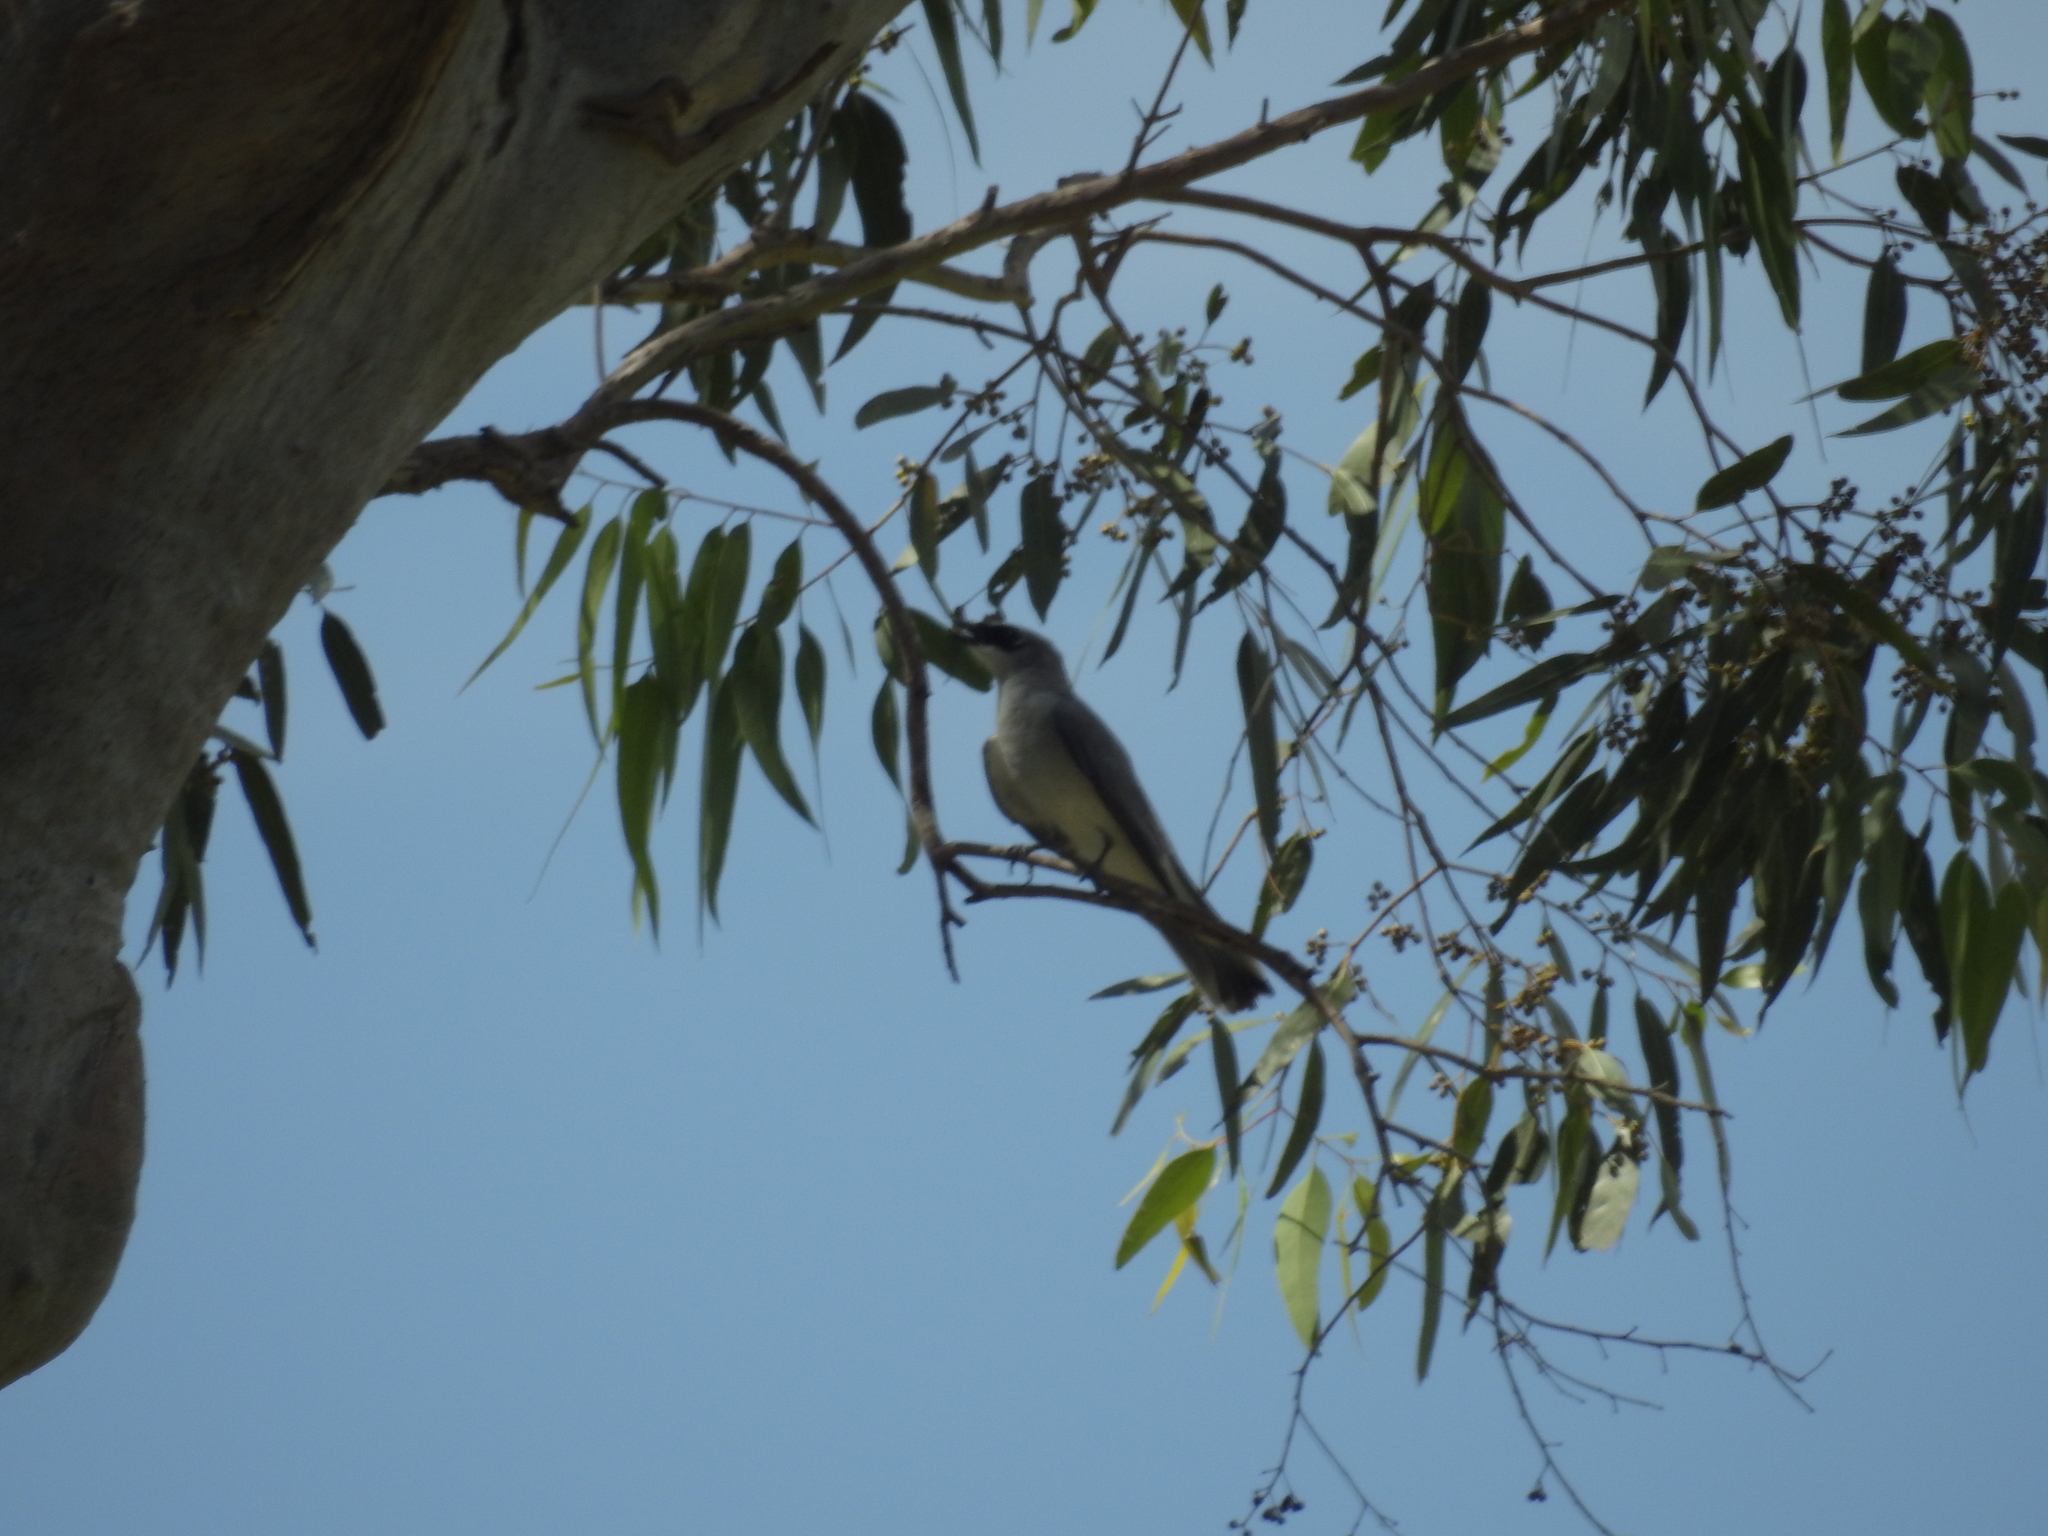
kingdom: Animalia
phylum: Chordata
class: Aves
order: Passeriformes
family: Campephagidae
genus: Coracina
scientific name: Coracina papuensis
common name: White-bellied cuckooshrike
